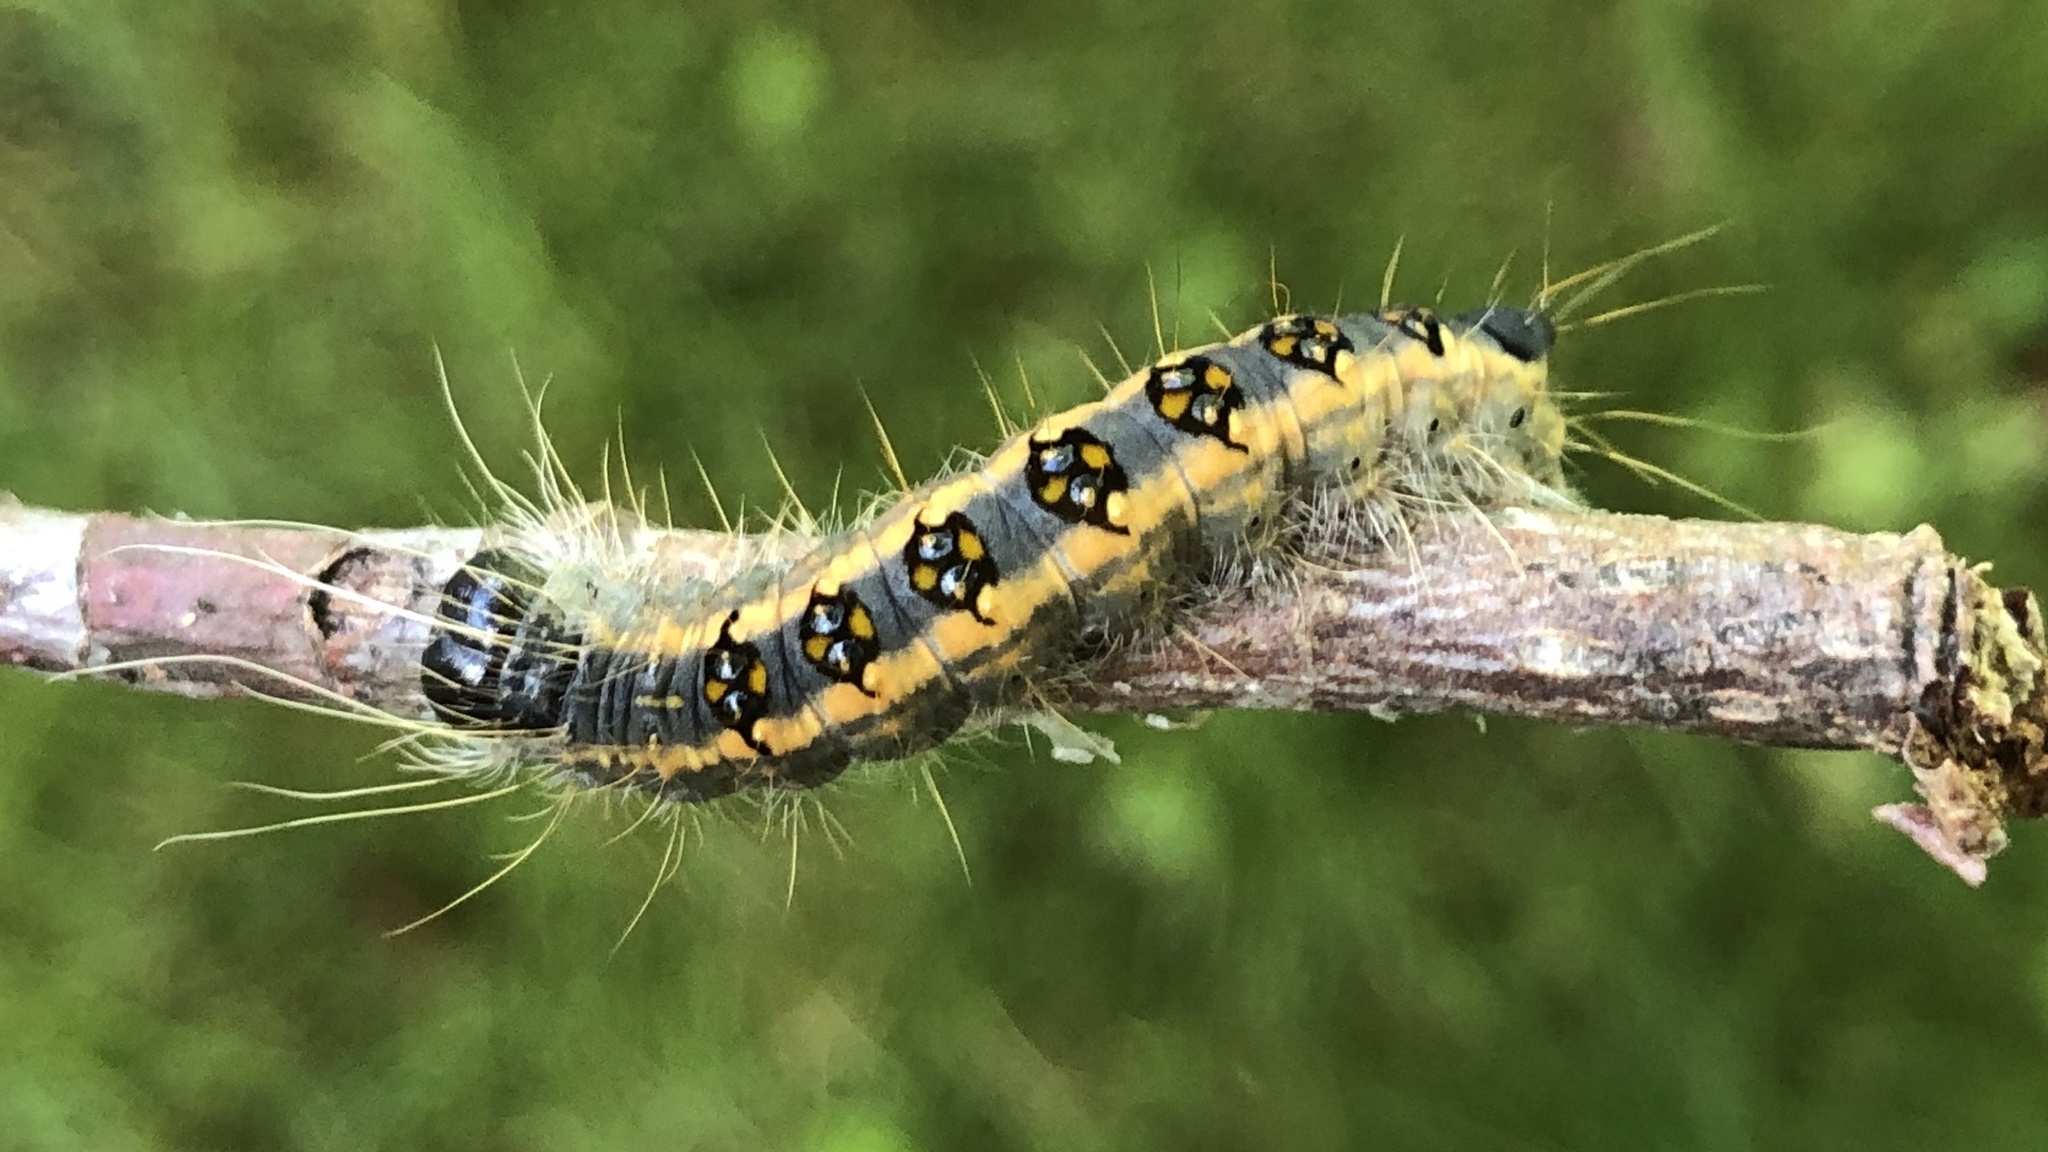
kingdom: Animalia
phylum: Arthropoda
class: Insecta
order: Lepidoptera
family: Noctuidae
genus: Acronicta
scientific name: Acronicta interrupta
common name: Interrupted dagger
